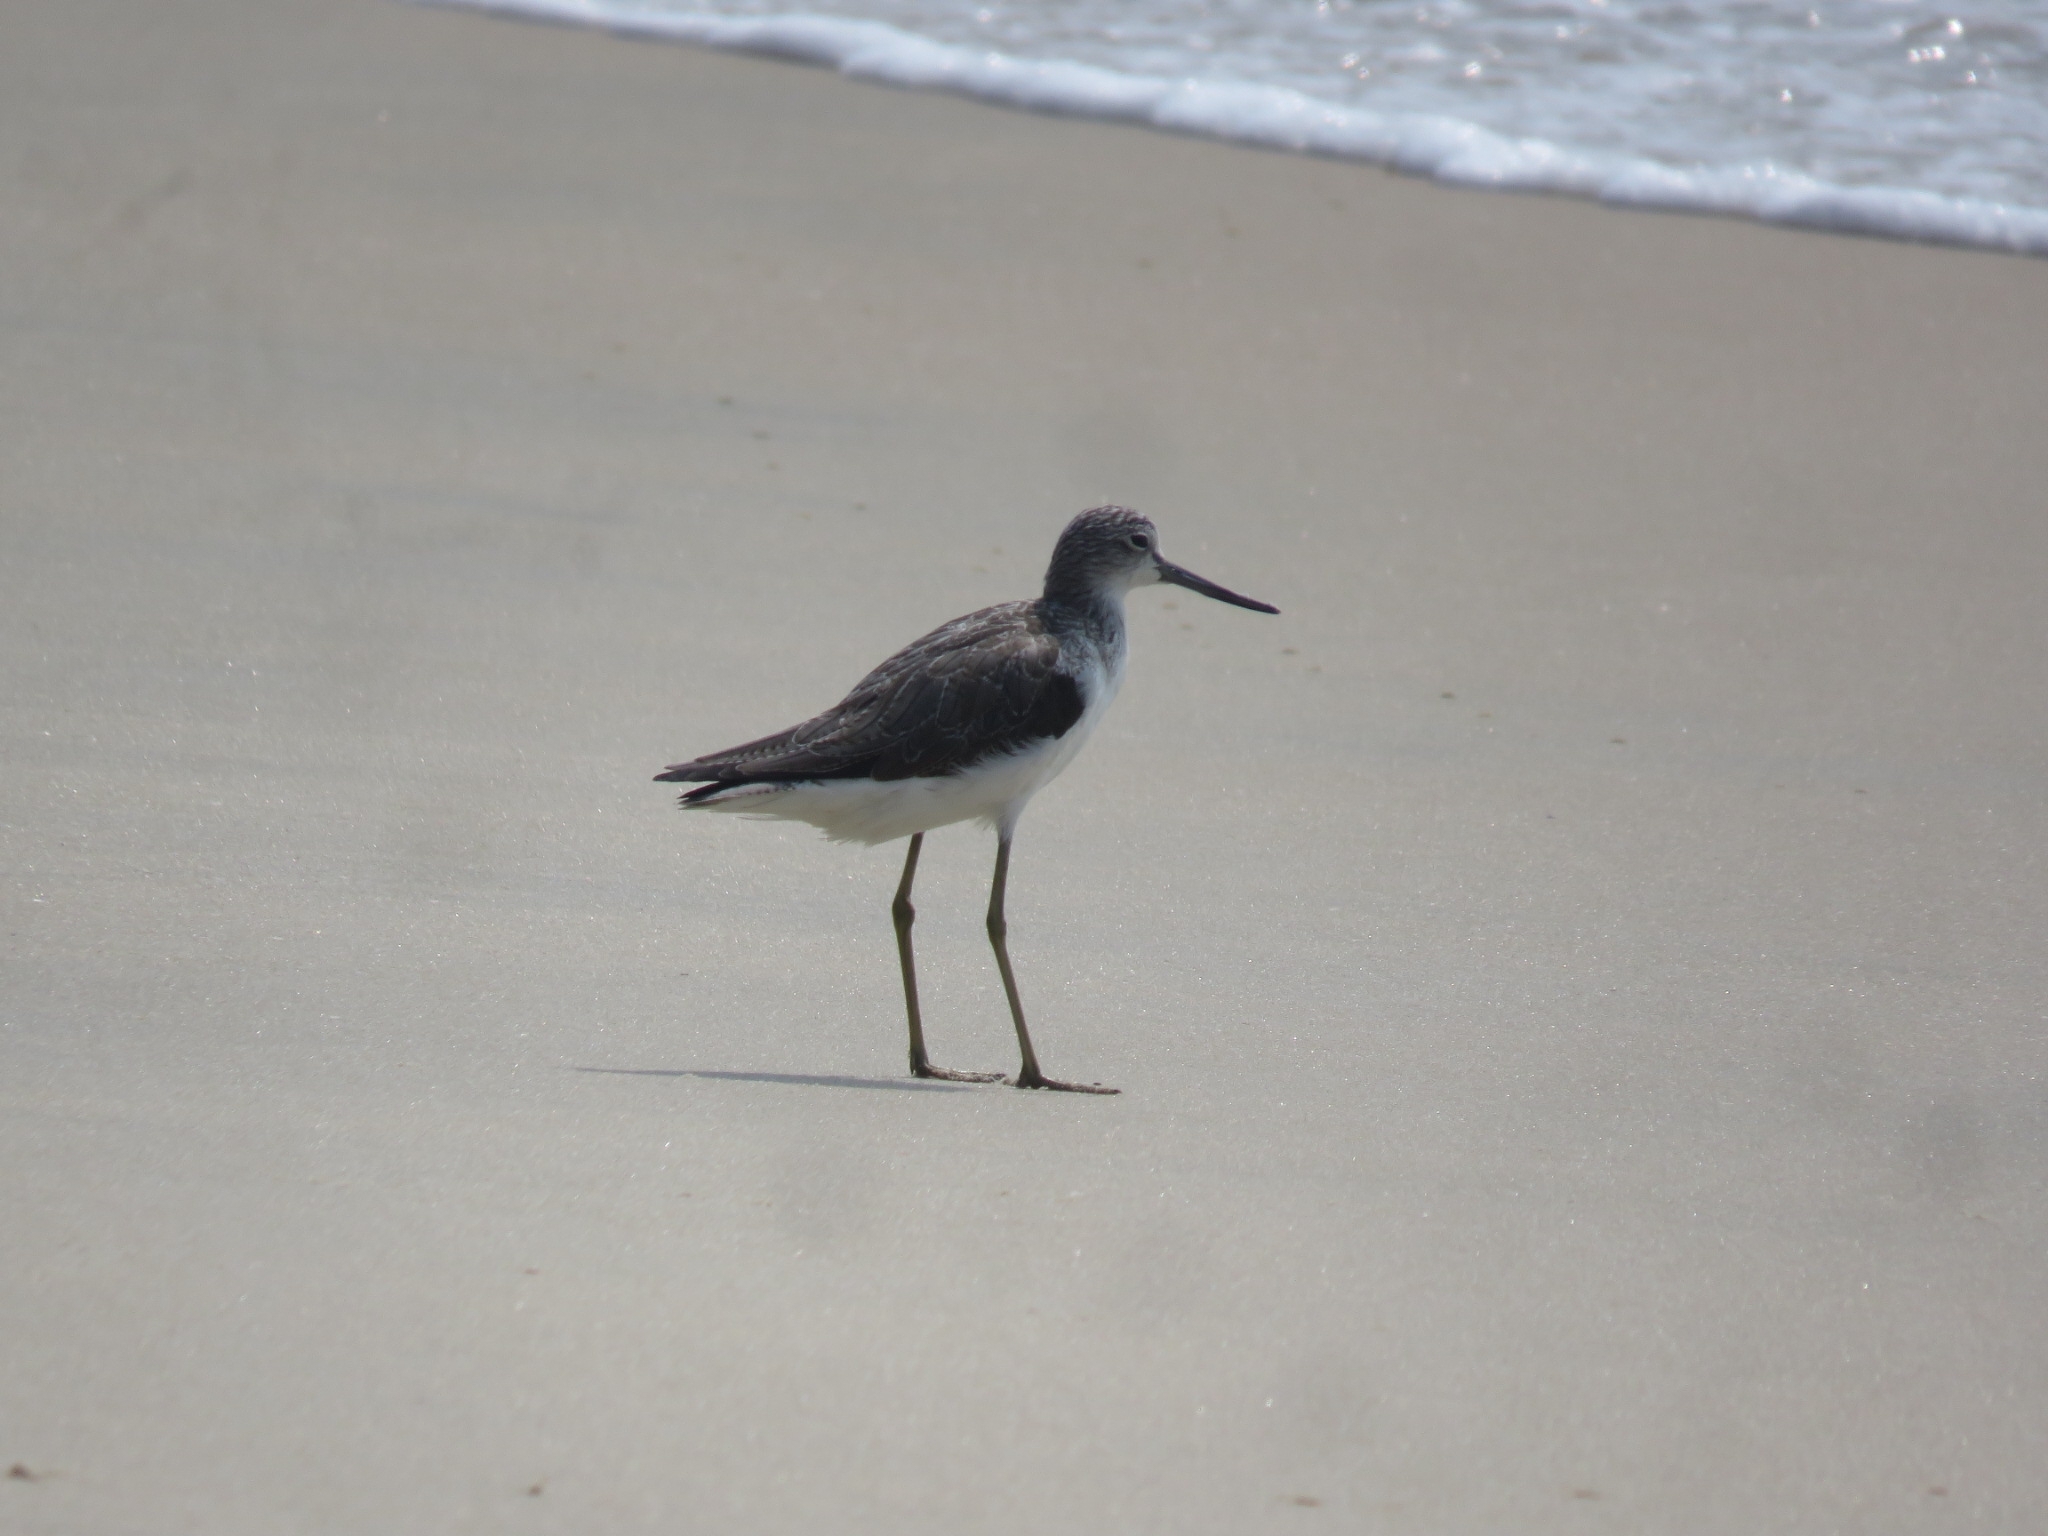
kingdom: Animalia
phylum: Chordata
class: Aves
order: Charadriiformes
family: Scolopacidae
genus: Tringa
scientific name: Tringa nebularia
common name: Common greenshank
